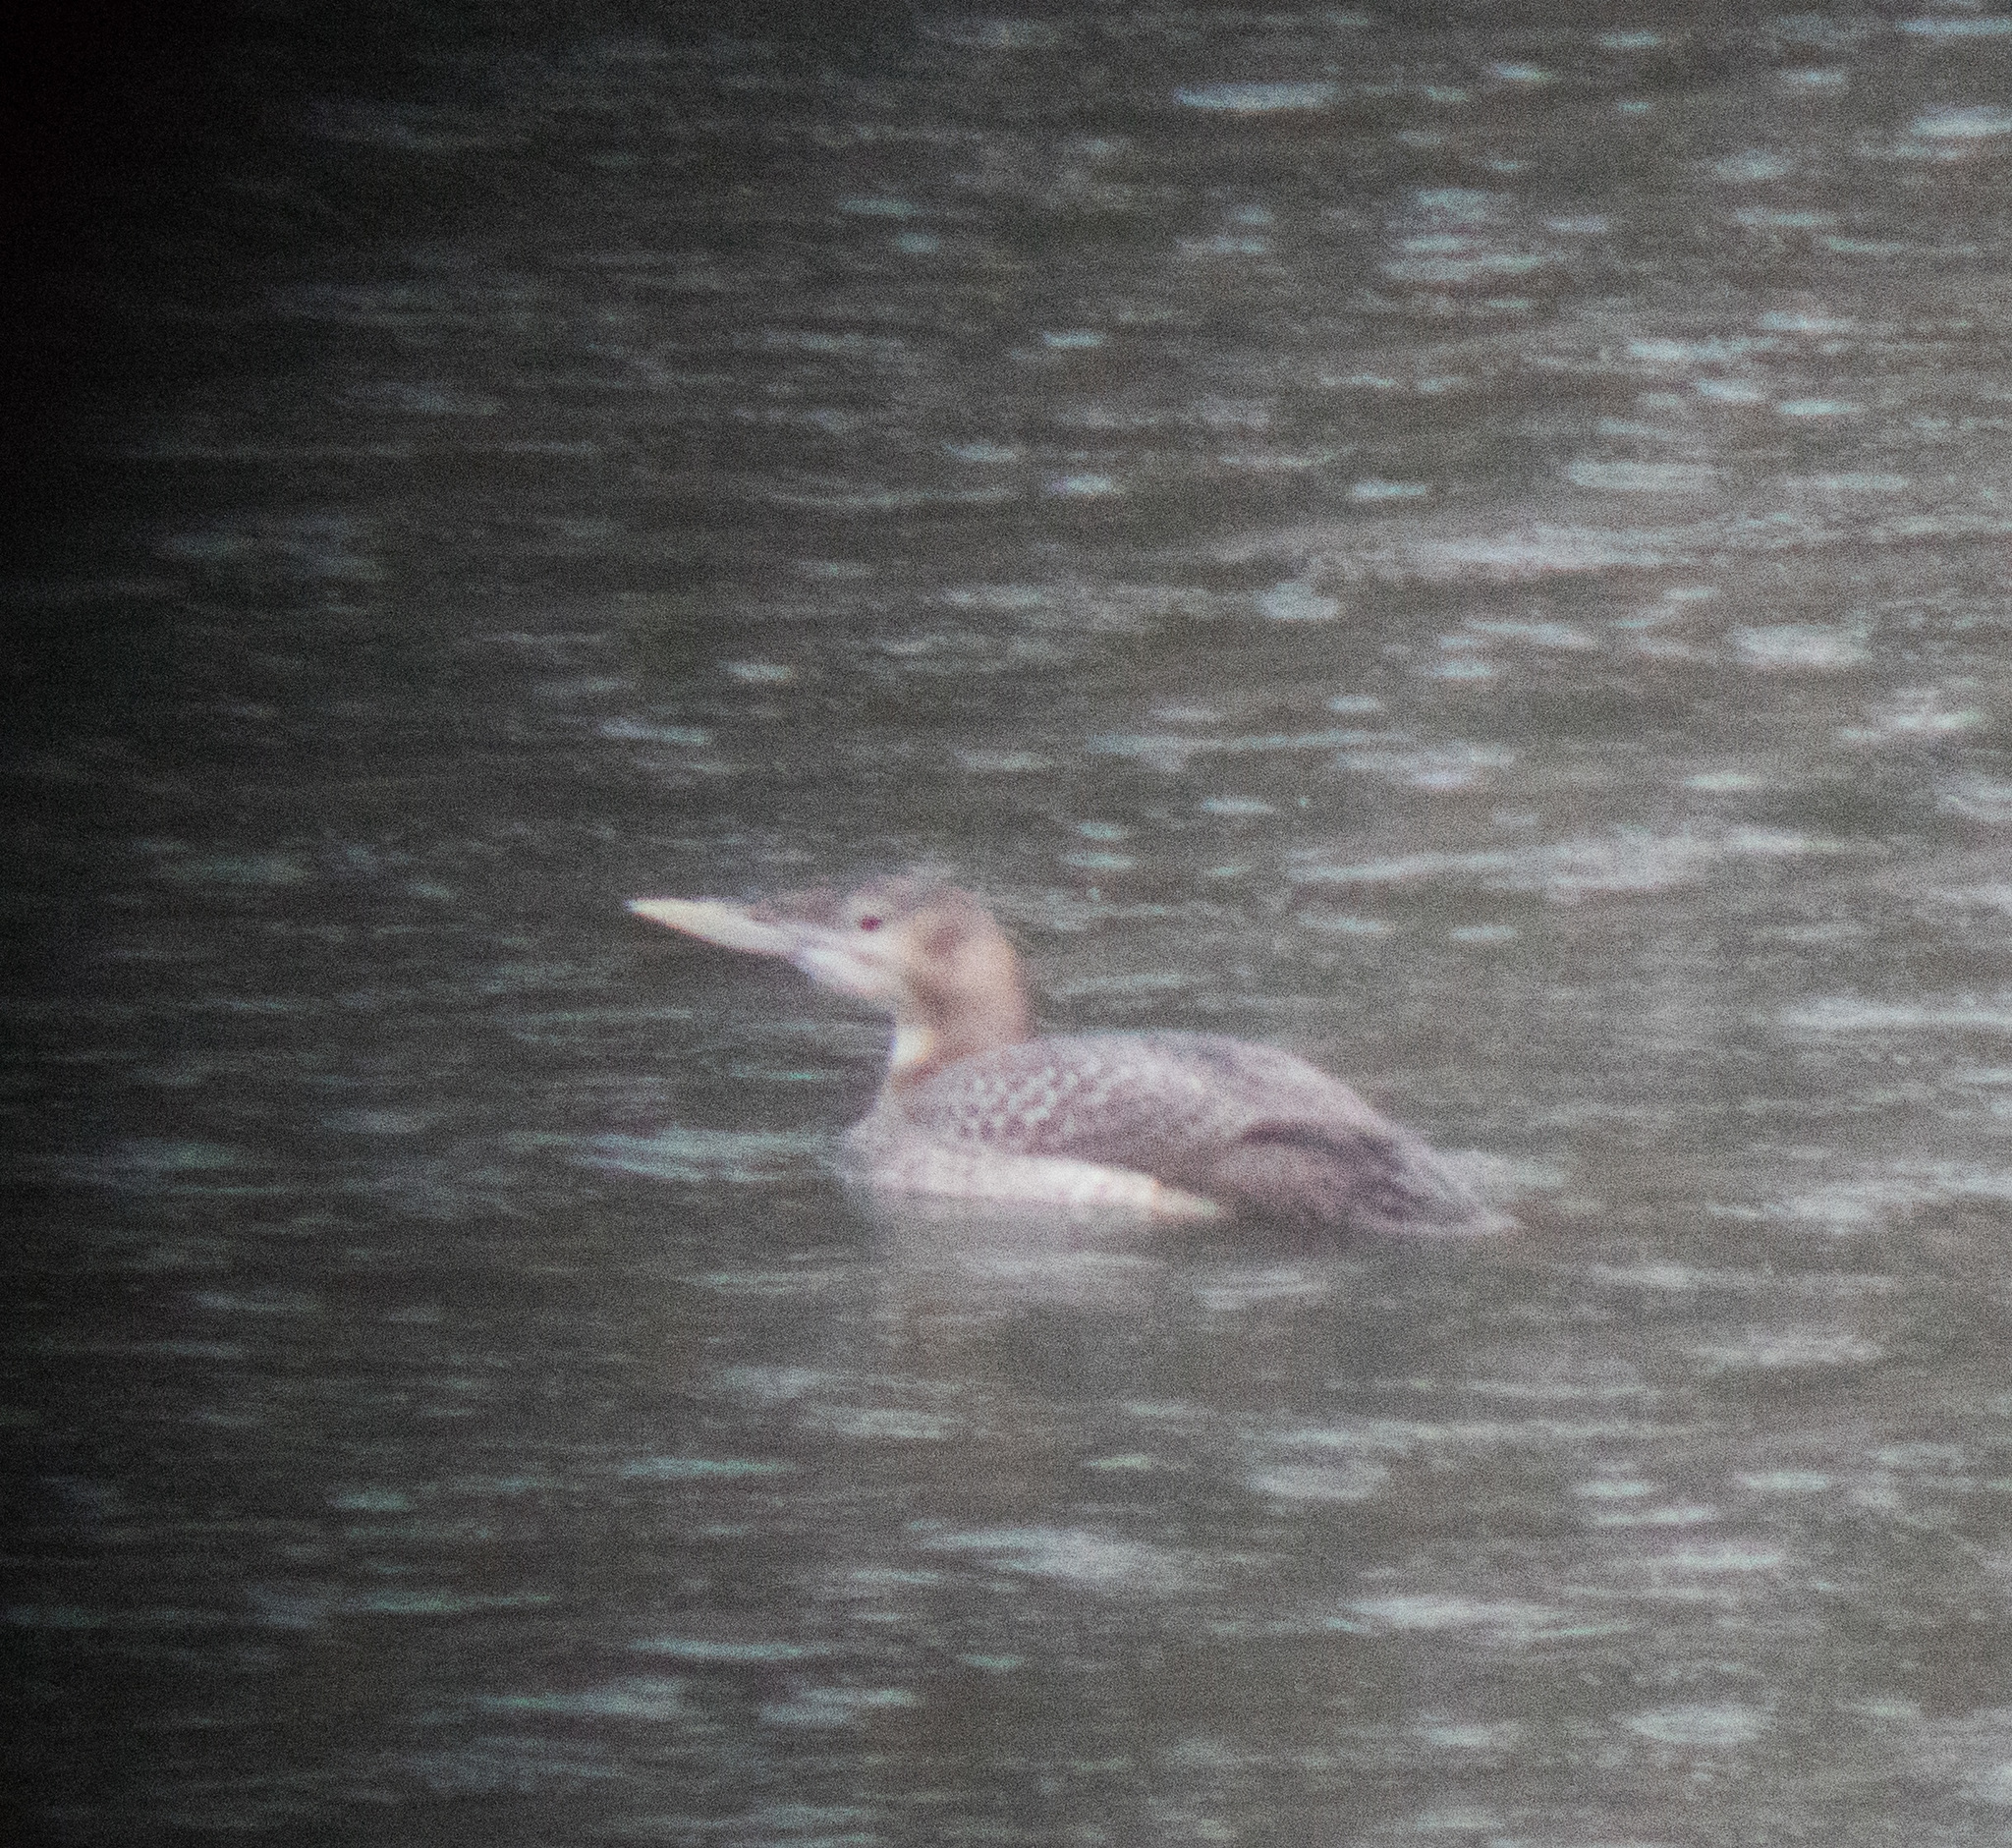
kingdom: Animalia
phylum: Chordata
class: Aves
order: Gaviiformes
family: Gaviidae
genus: Gavia
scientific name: Gavia adamsii
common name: Yellow-billed loon
